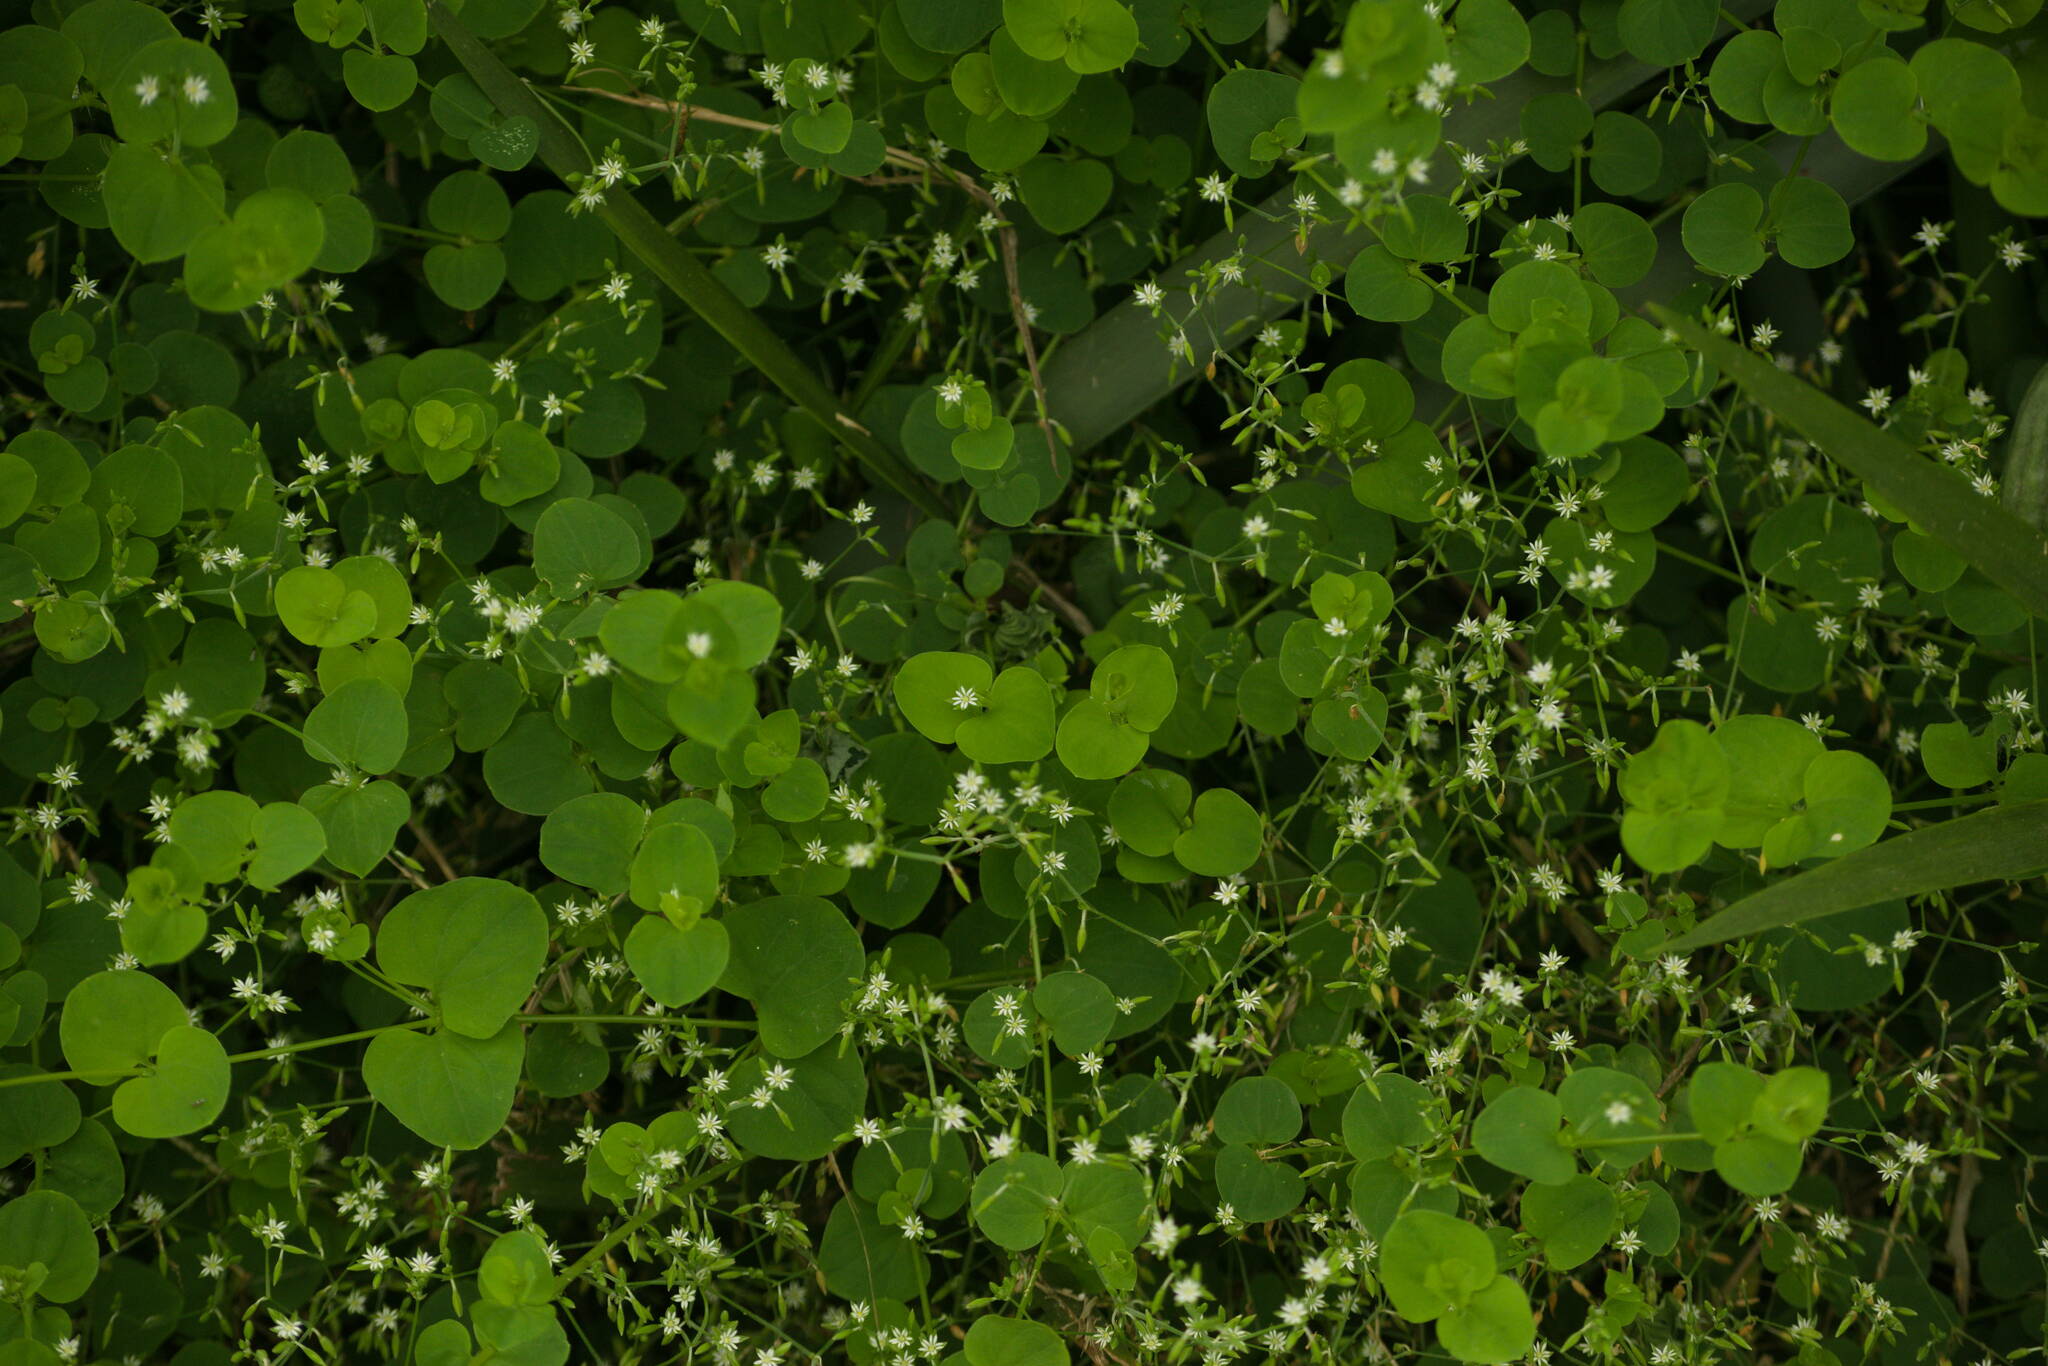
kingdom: Plantae
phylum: Tracheophyta
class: Magnoliopsida
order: Caryophyllales
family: Caryophyllaceae
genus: Drymaria
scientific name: Drymaria cordata
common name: Whitesnow
